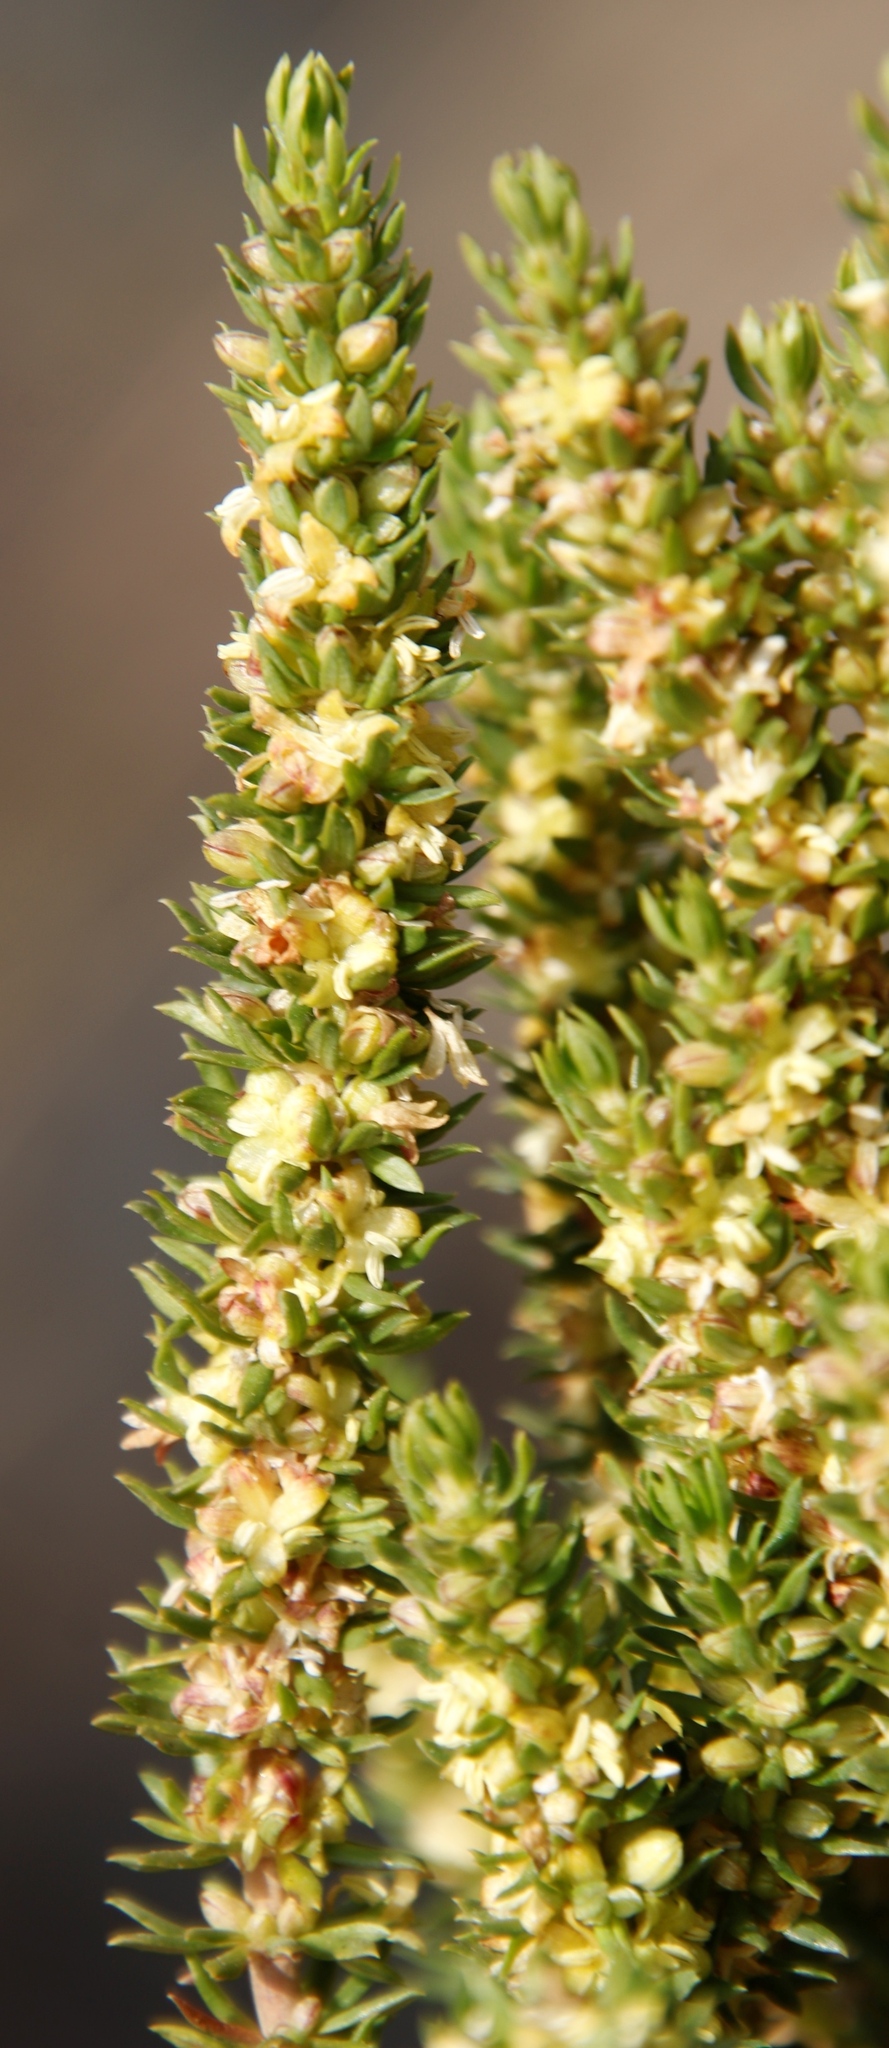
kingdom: Plantae
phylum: Tracheophyta
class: Magnoliopsida
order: Gentianales
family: Rubiaceae
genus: Anthospermum
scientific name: Anthospermum aethiopicum
